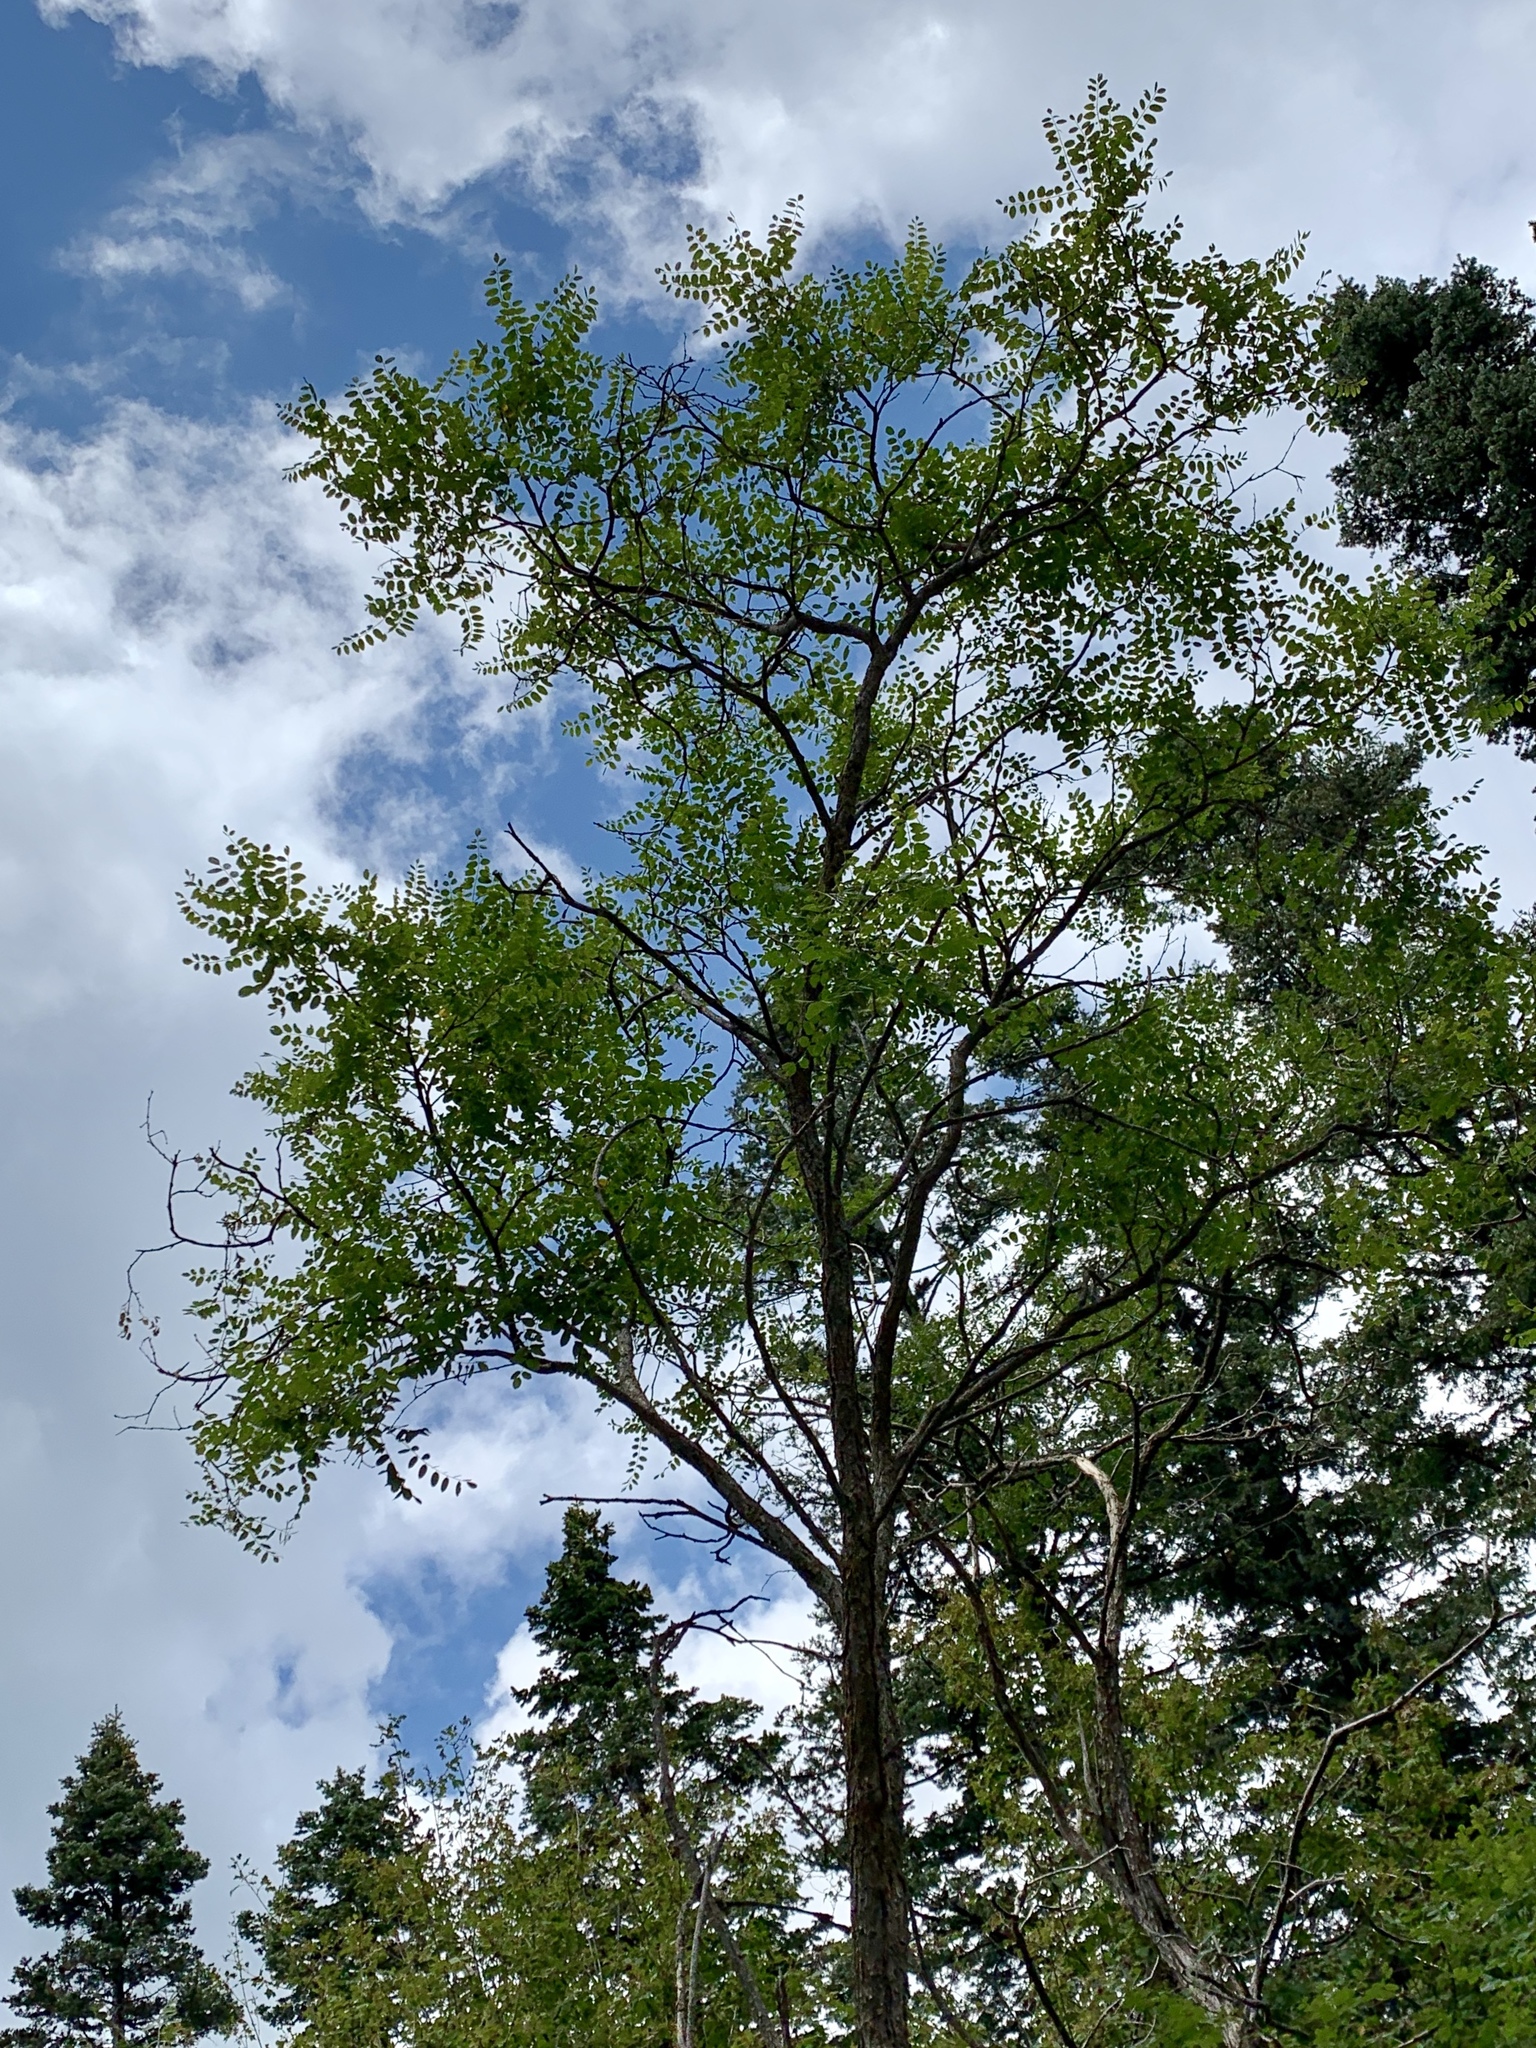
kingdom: Plantae
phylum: Tracheophyta
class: Magnoliopsida
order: Fabales
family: Fabaceae
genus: Robinia
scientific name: Robinia neomexicana
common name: New mexico locust
